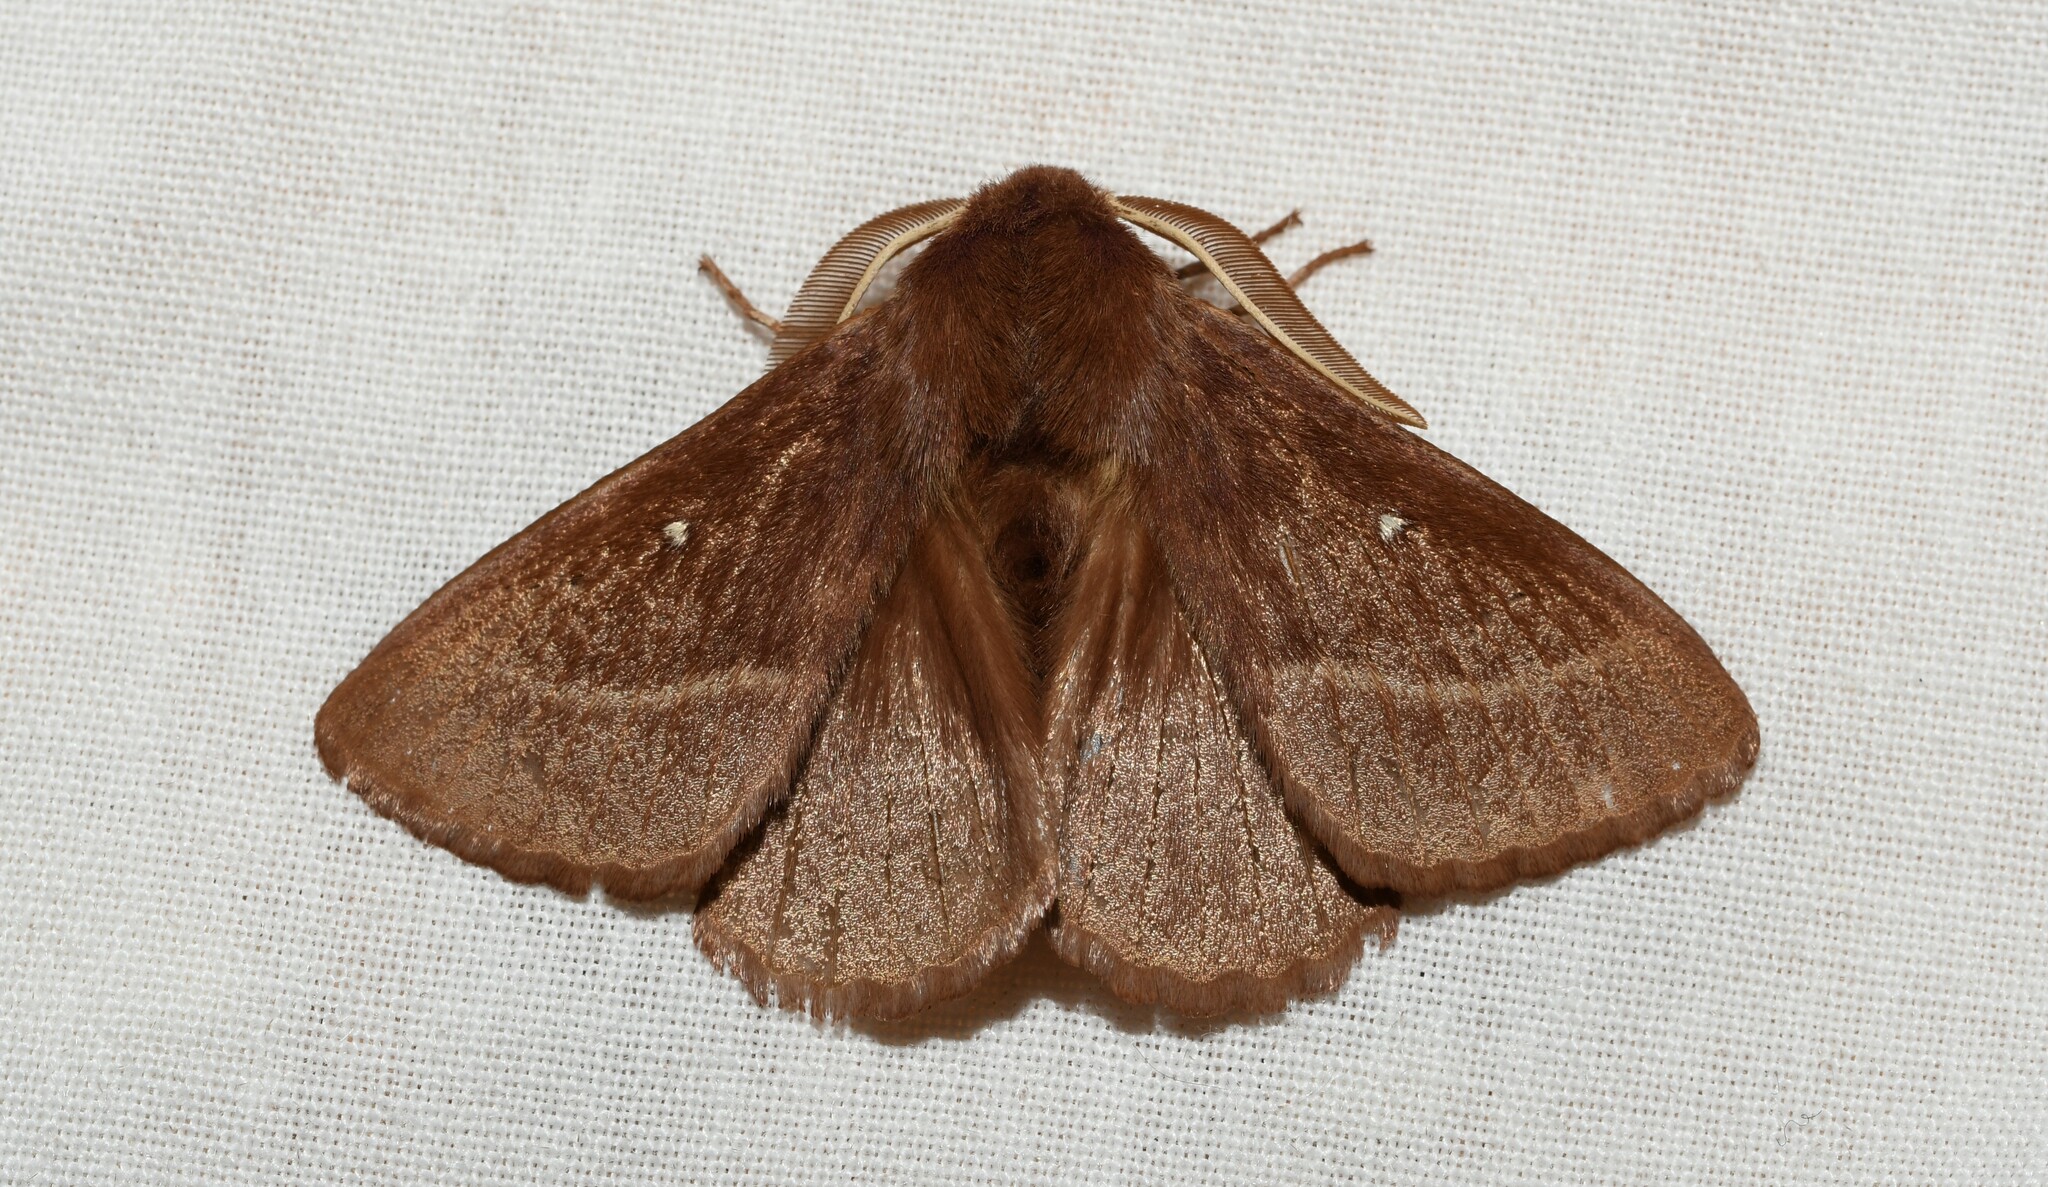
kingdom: Animalia
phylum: Arthropoda
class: Insecta
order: Lepidoptera
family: Lasiocampidae
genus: Lasiocampa
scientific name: Lasiocampa trifolii
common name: Grass eggar
